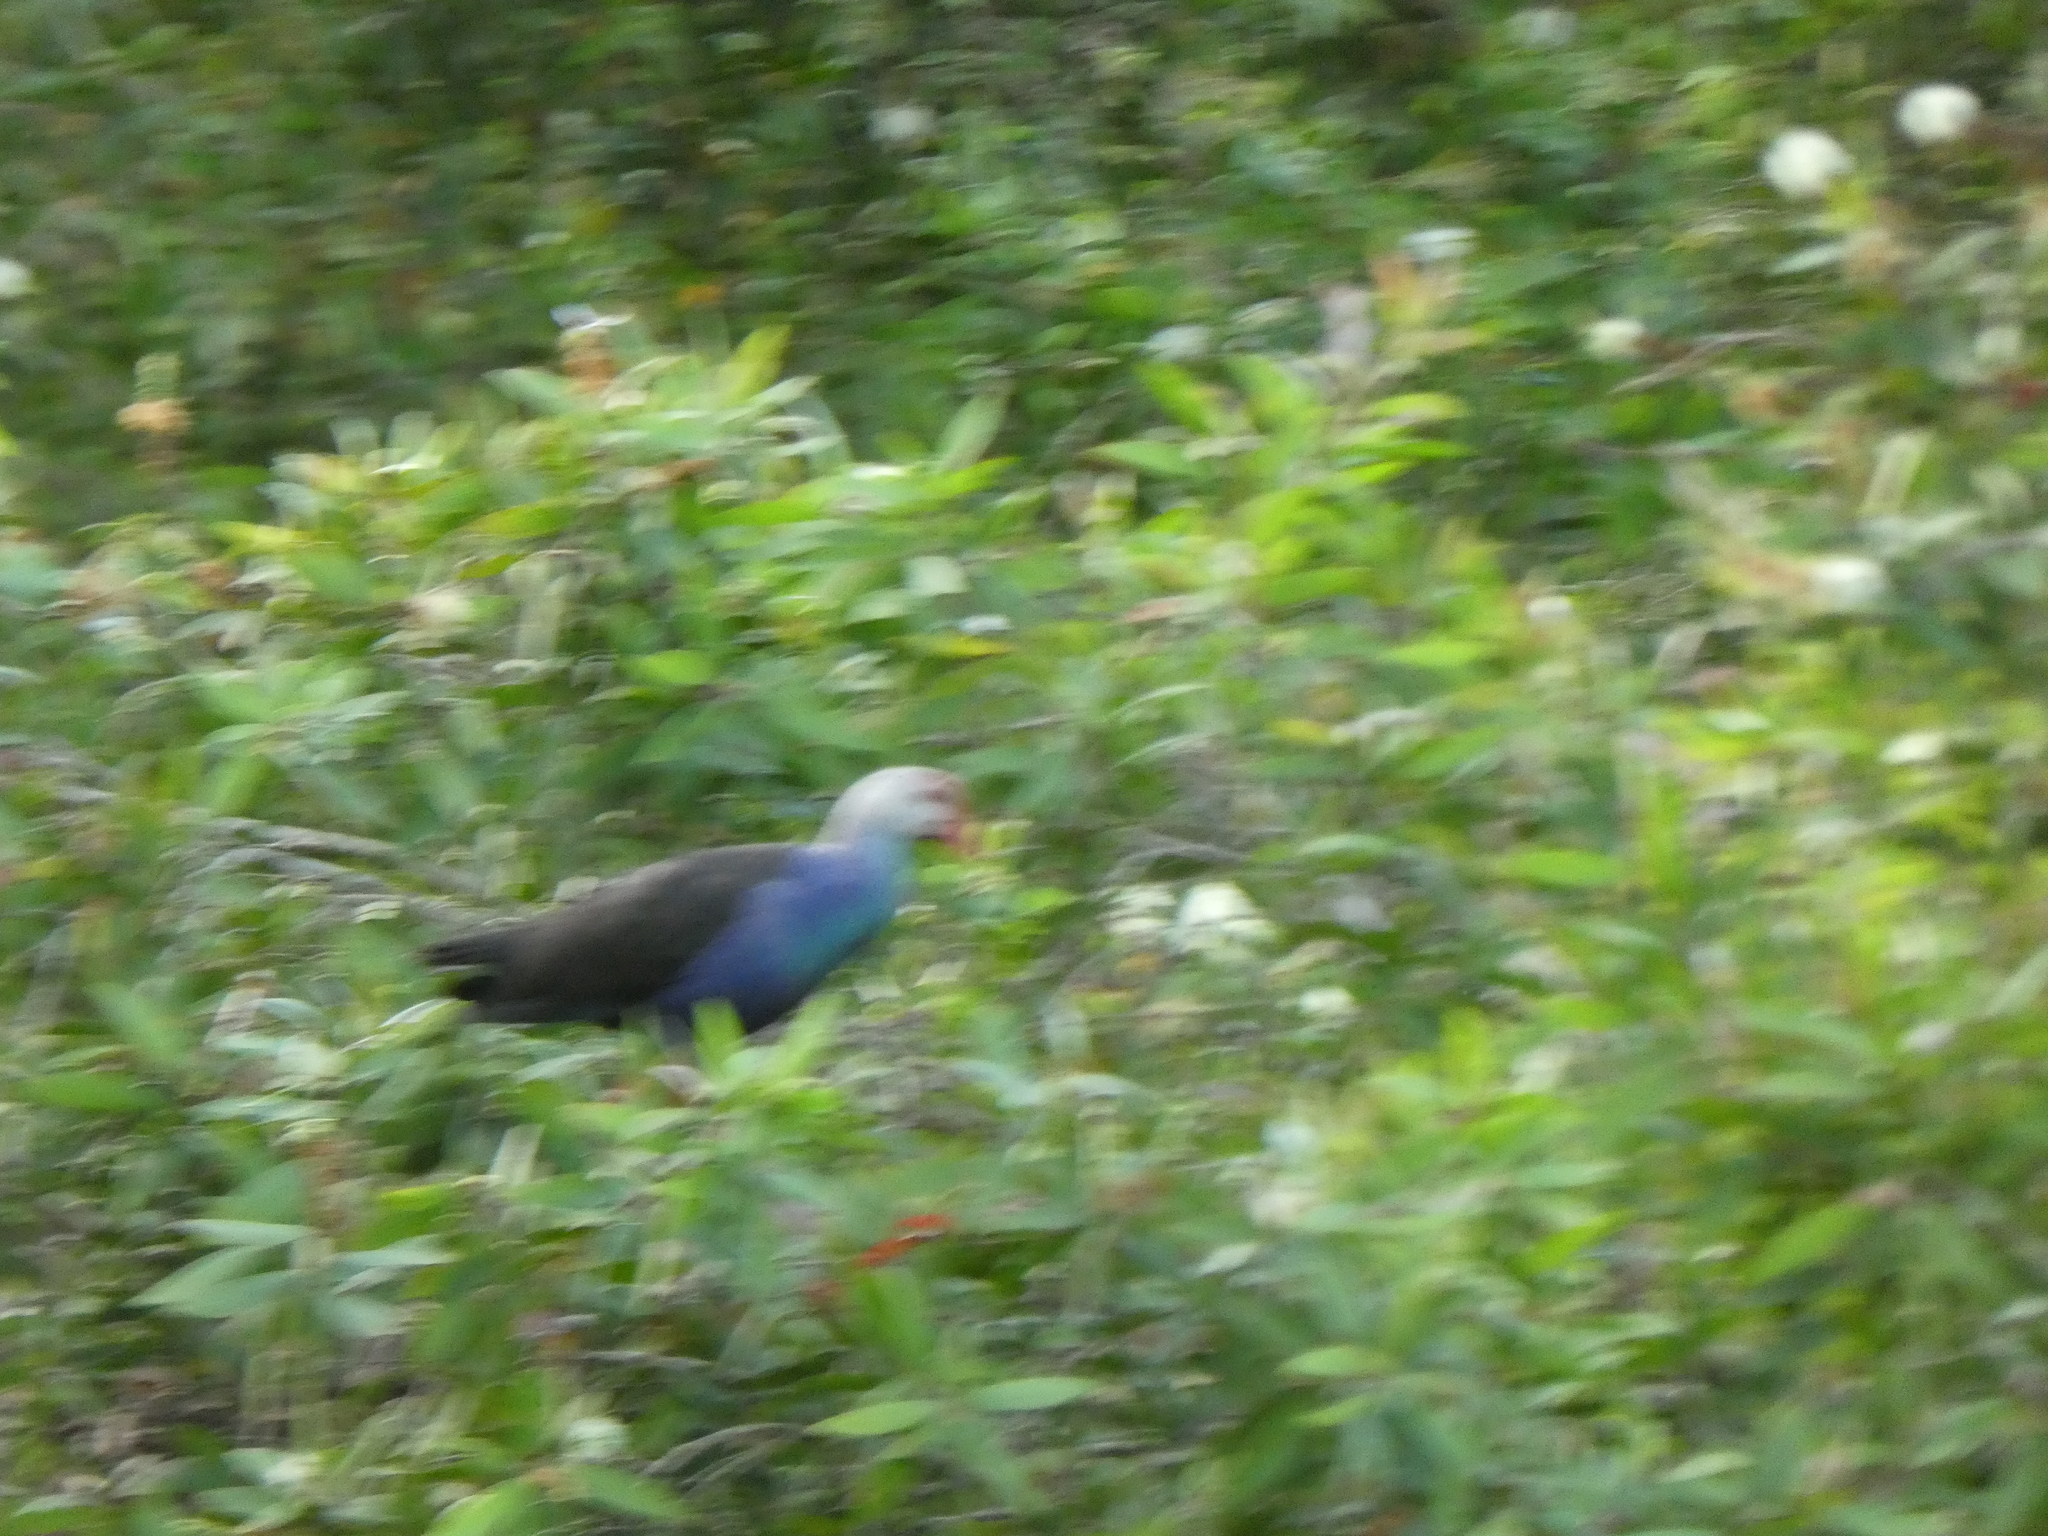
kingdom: Animalia
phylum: Chordata
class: Aves
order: Gruiformes
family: Rallidae
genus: Porphyrio
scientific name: Porphyrio porphyrio
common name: Purple swamphen
